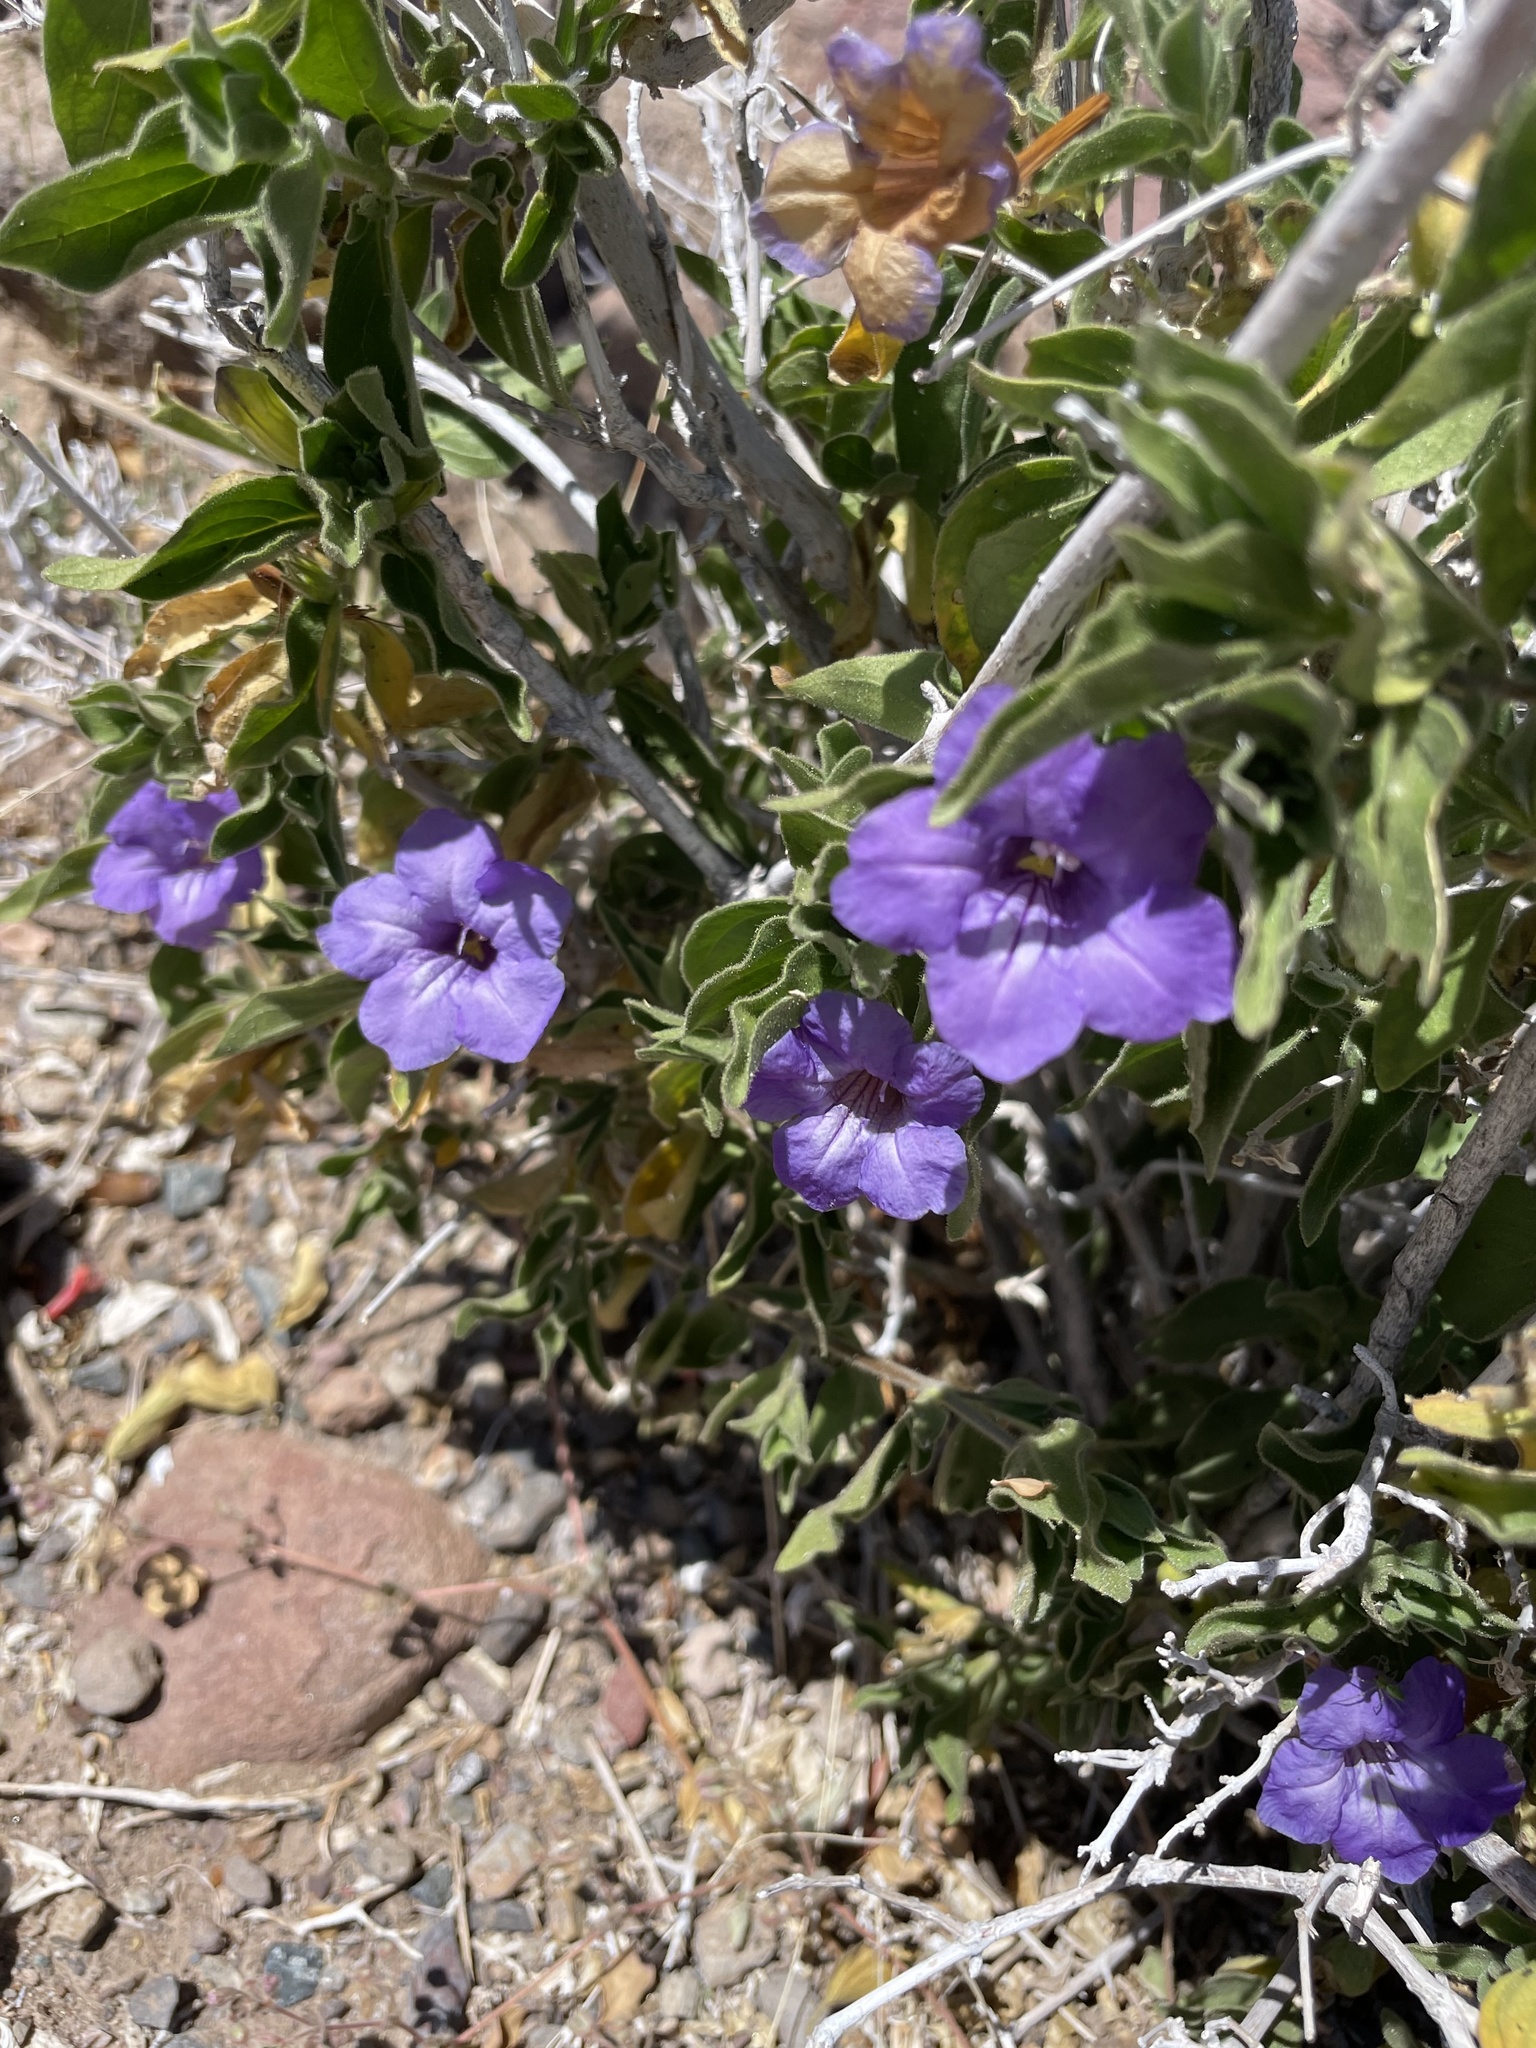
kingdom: Plantae
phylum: Tracheophyta
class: Magnoliopsida
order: Lamiales
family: Acanthaceae
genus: Ruellia
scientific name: Ruellia californica
